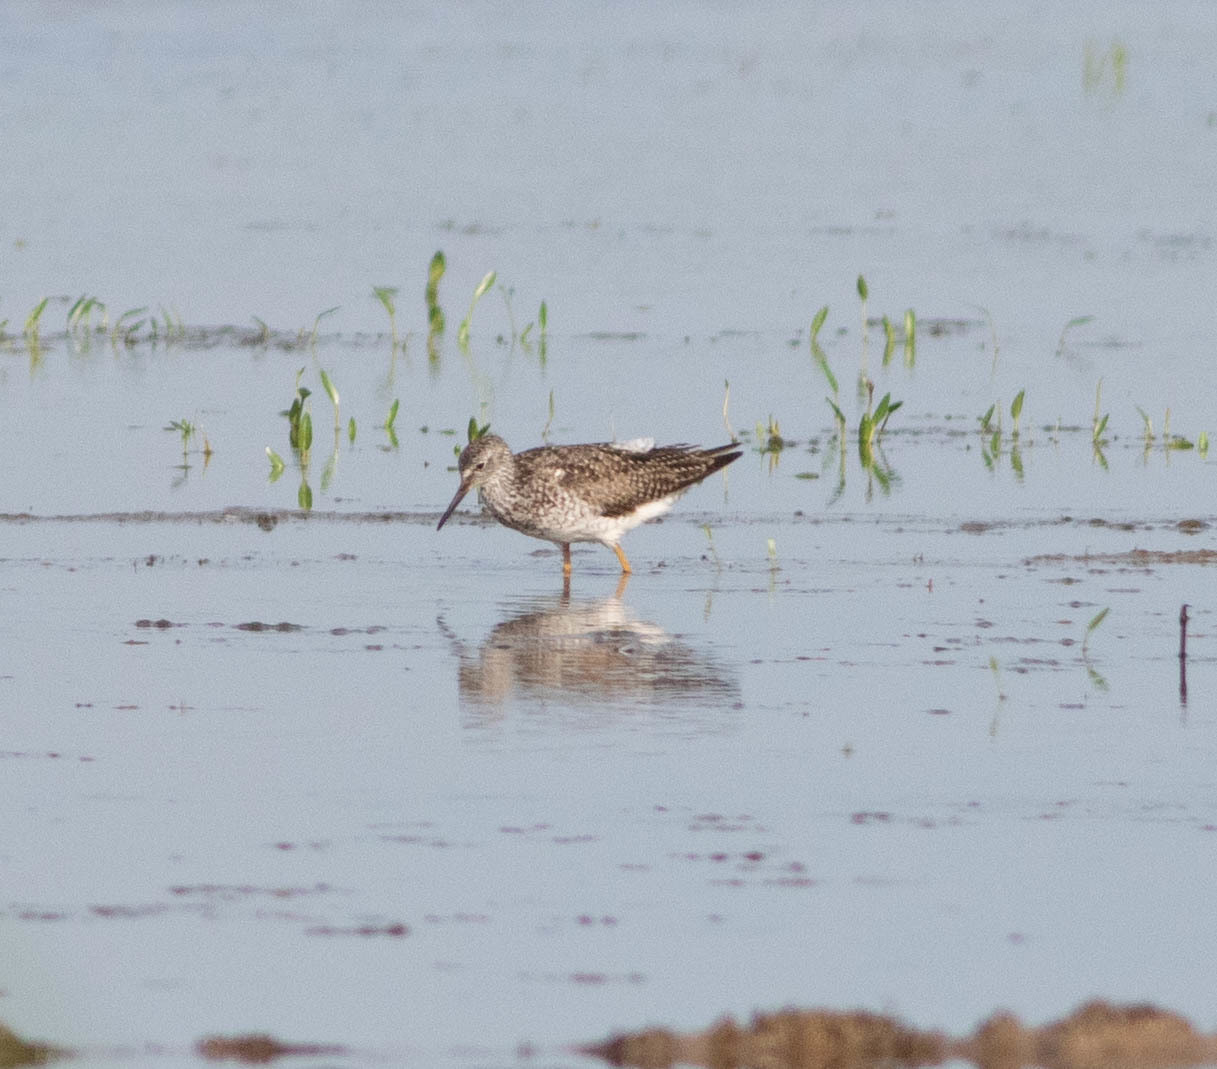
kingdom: Animalia
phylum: Chordata
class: Aves
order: Charadriiformes
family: Scolopacidae
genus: Tringa
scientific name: Tringa flavipes
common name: Lesser yellowlegs
